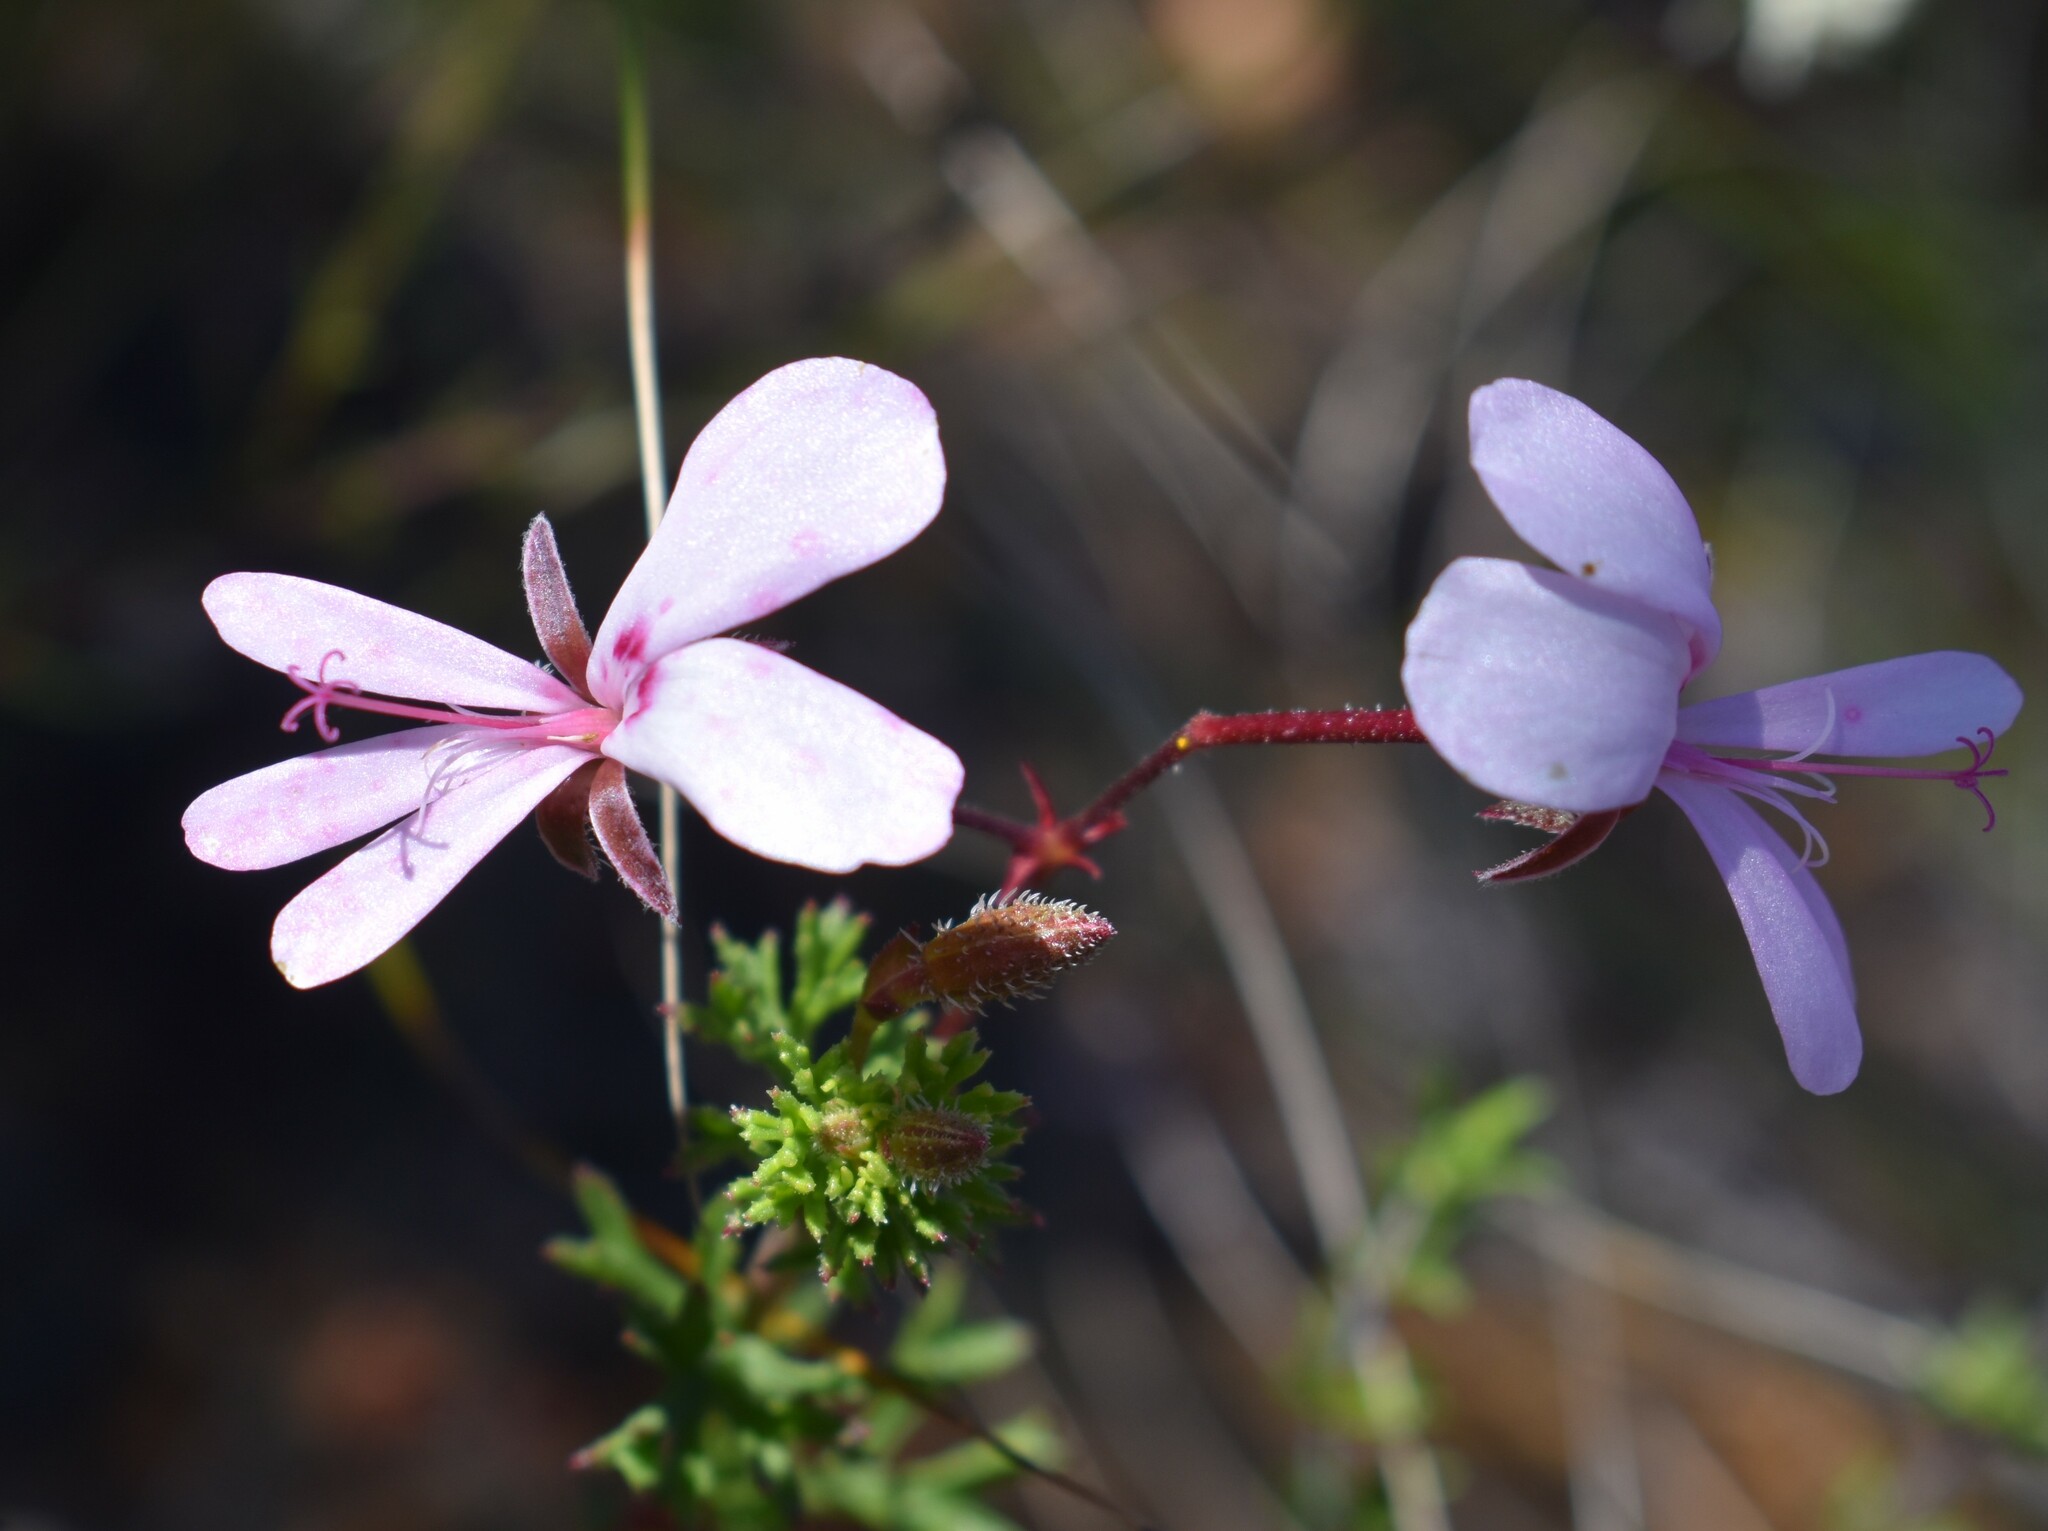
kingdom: Plantae
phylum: Tracheophyta
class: Magnoliopsida
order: Geraniales
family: Geraniaceae
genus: Pelargonium
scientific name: Pelargonium fruticosum
